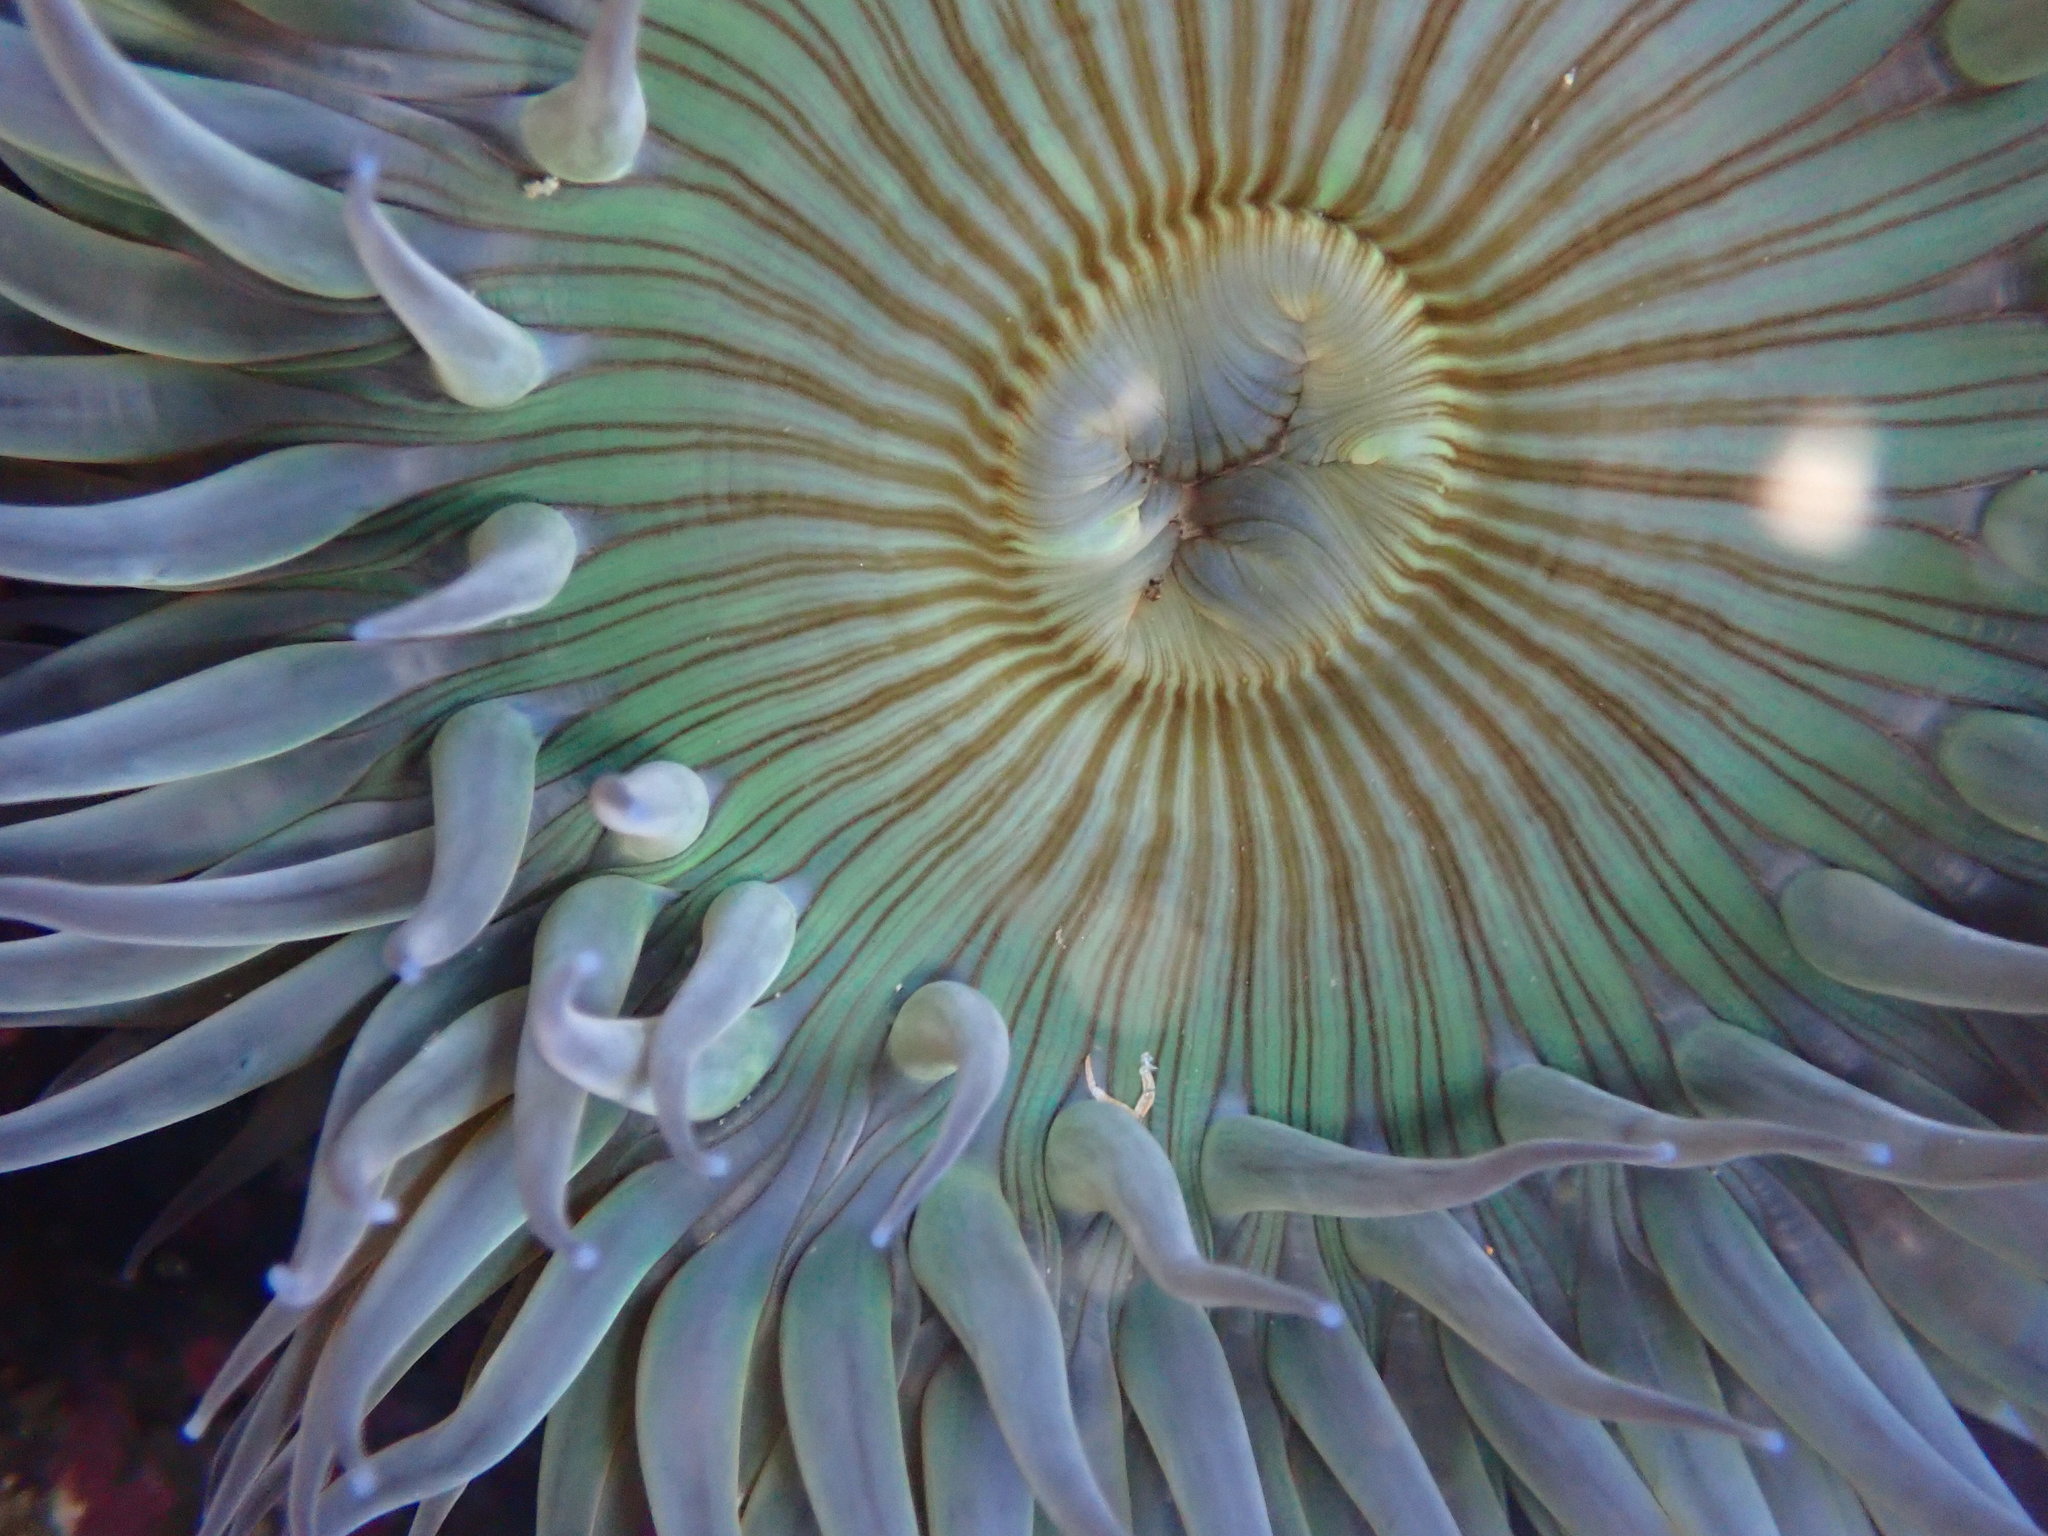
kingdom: Animalia
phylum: Cnidaria
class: Anthozoa
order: Actiniaria
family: Actiniidae
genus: Anthopleura
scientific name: Anthopleura sola
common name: Sun anemone
